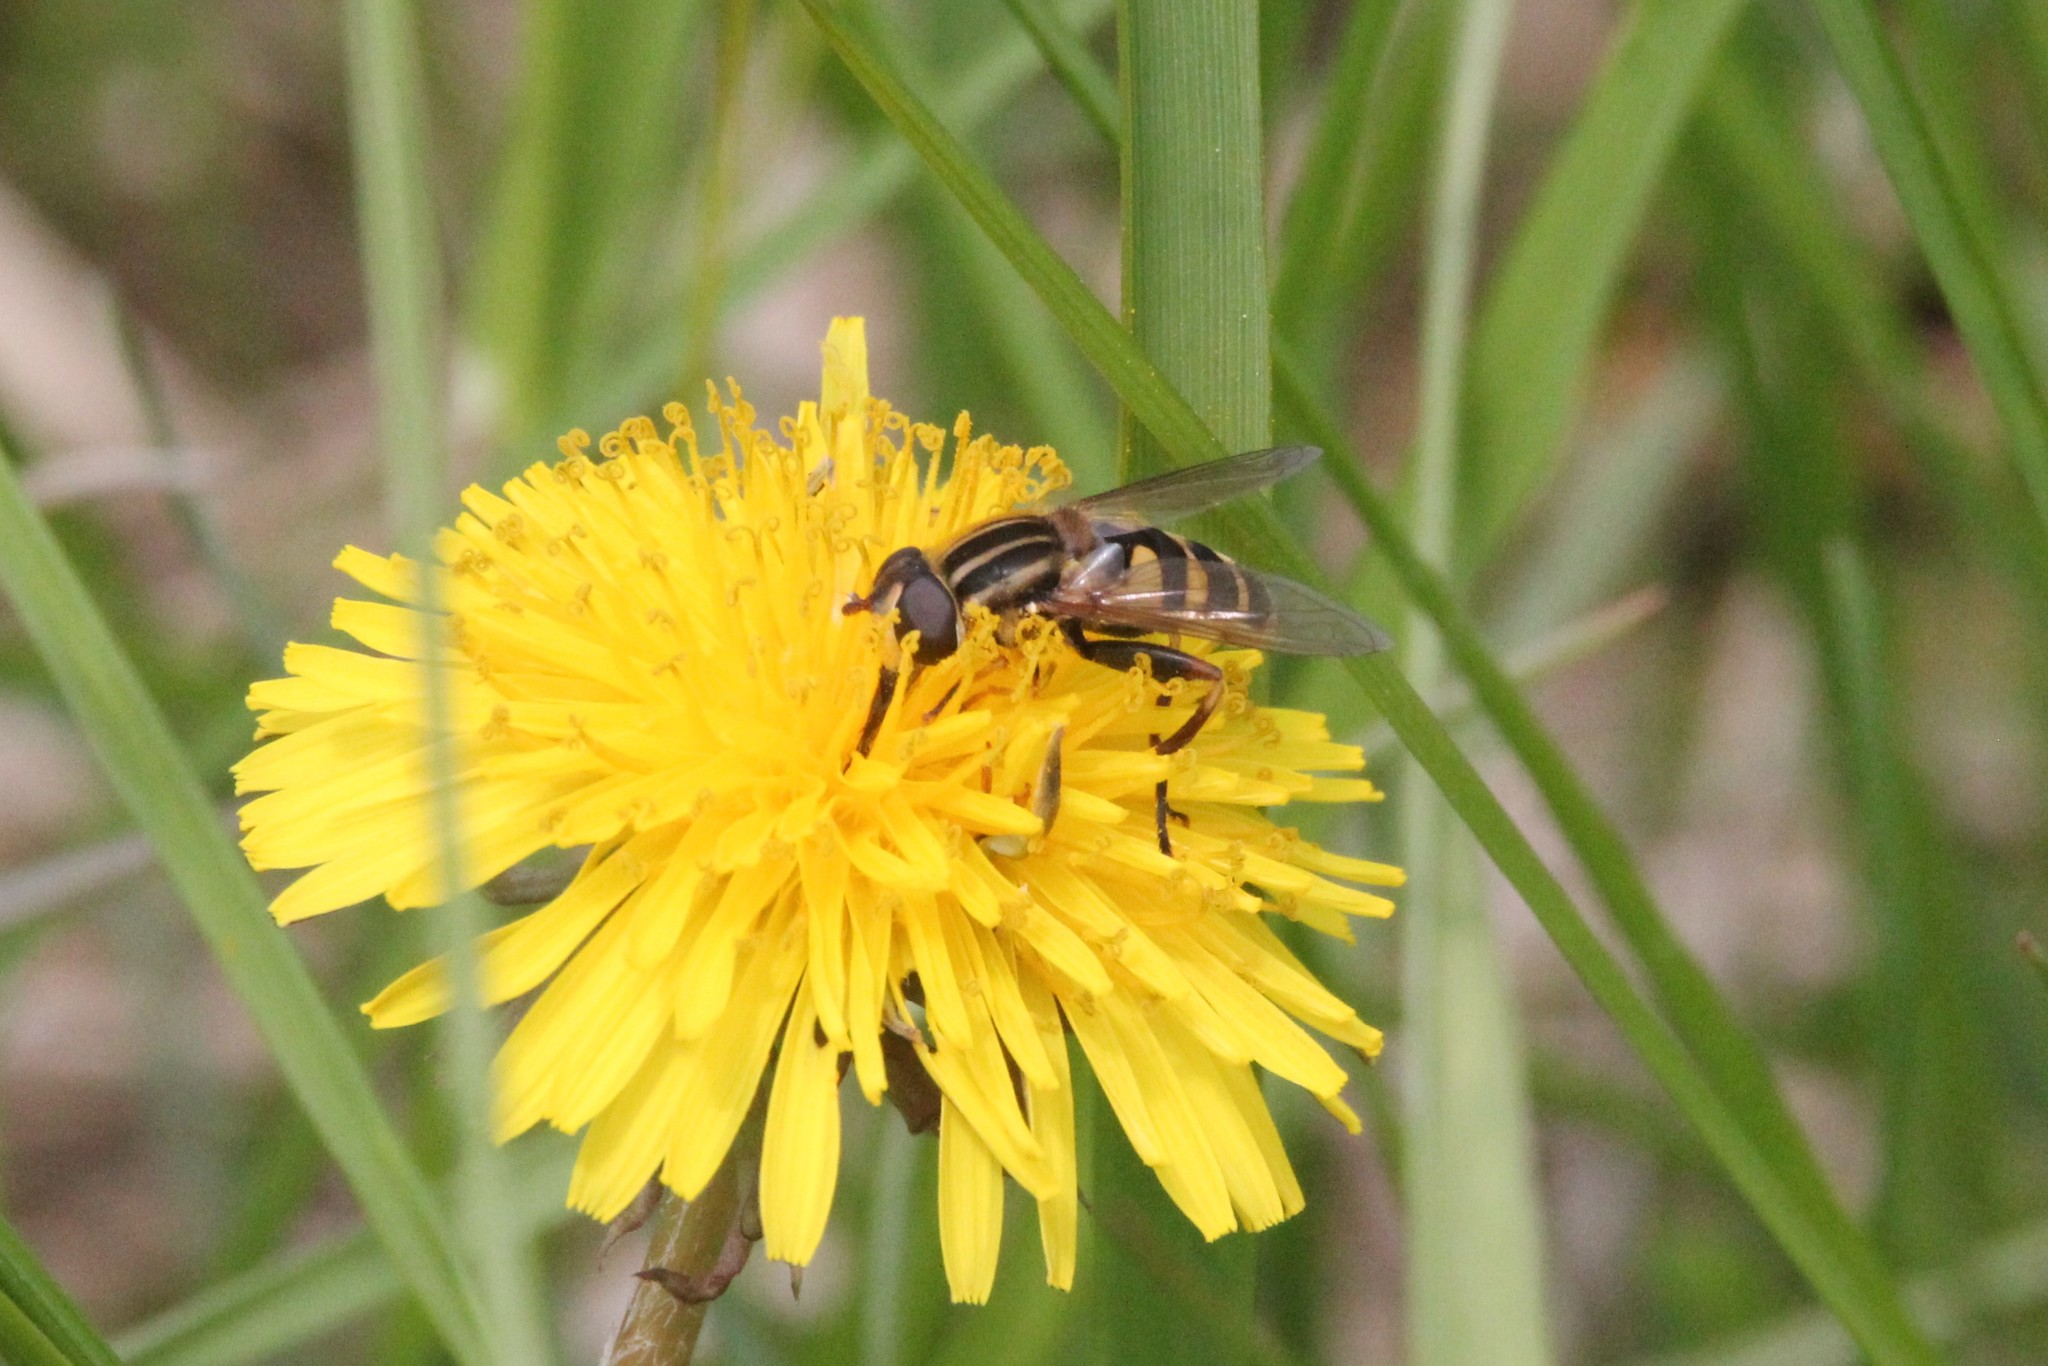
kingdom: Animalia
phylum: Arthropoda
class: Insecta
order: Diptera
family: Syrphidae
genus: Helophilus
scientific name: Helophilus fasciatus
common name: Narrow-headed marsh fly
